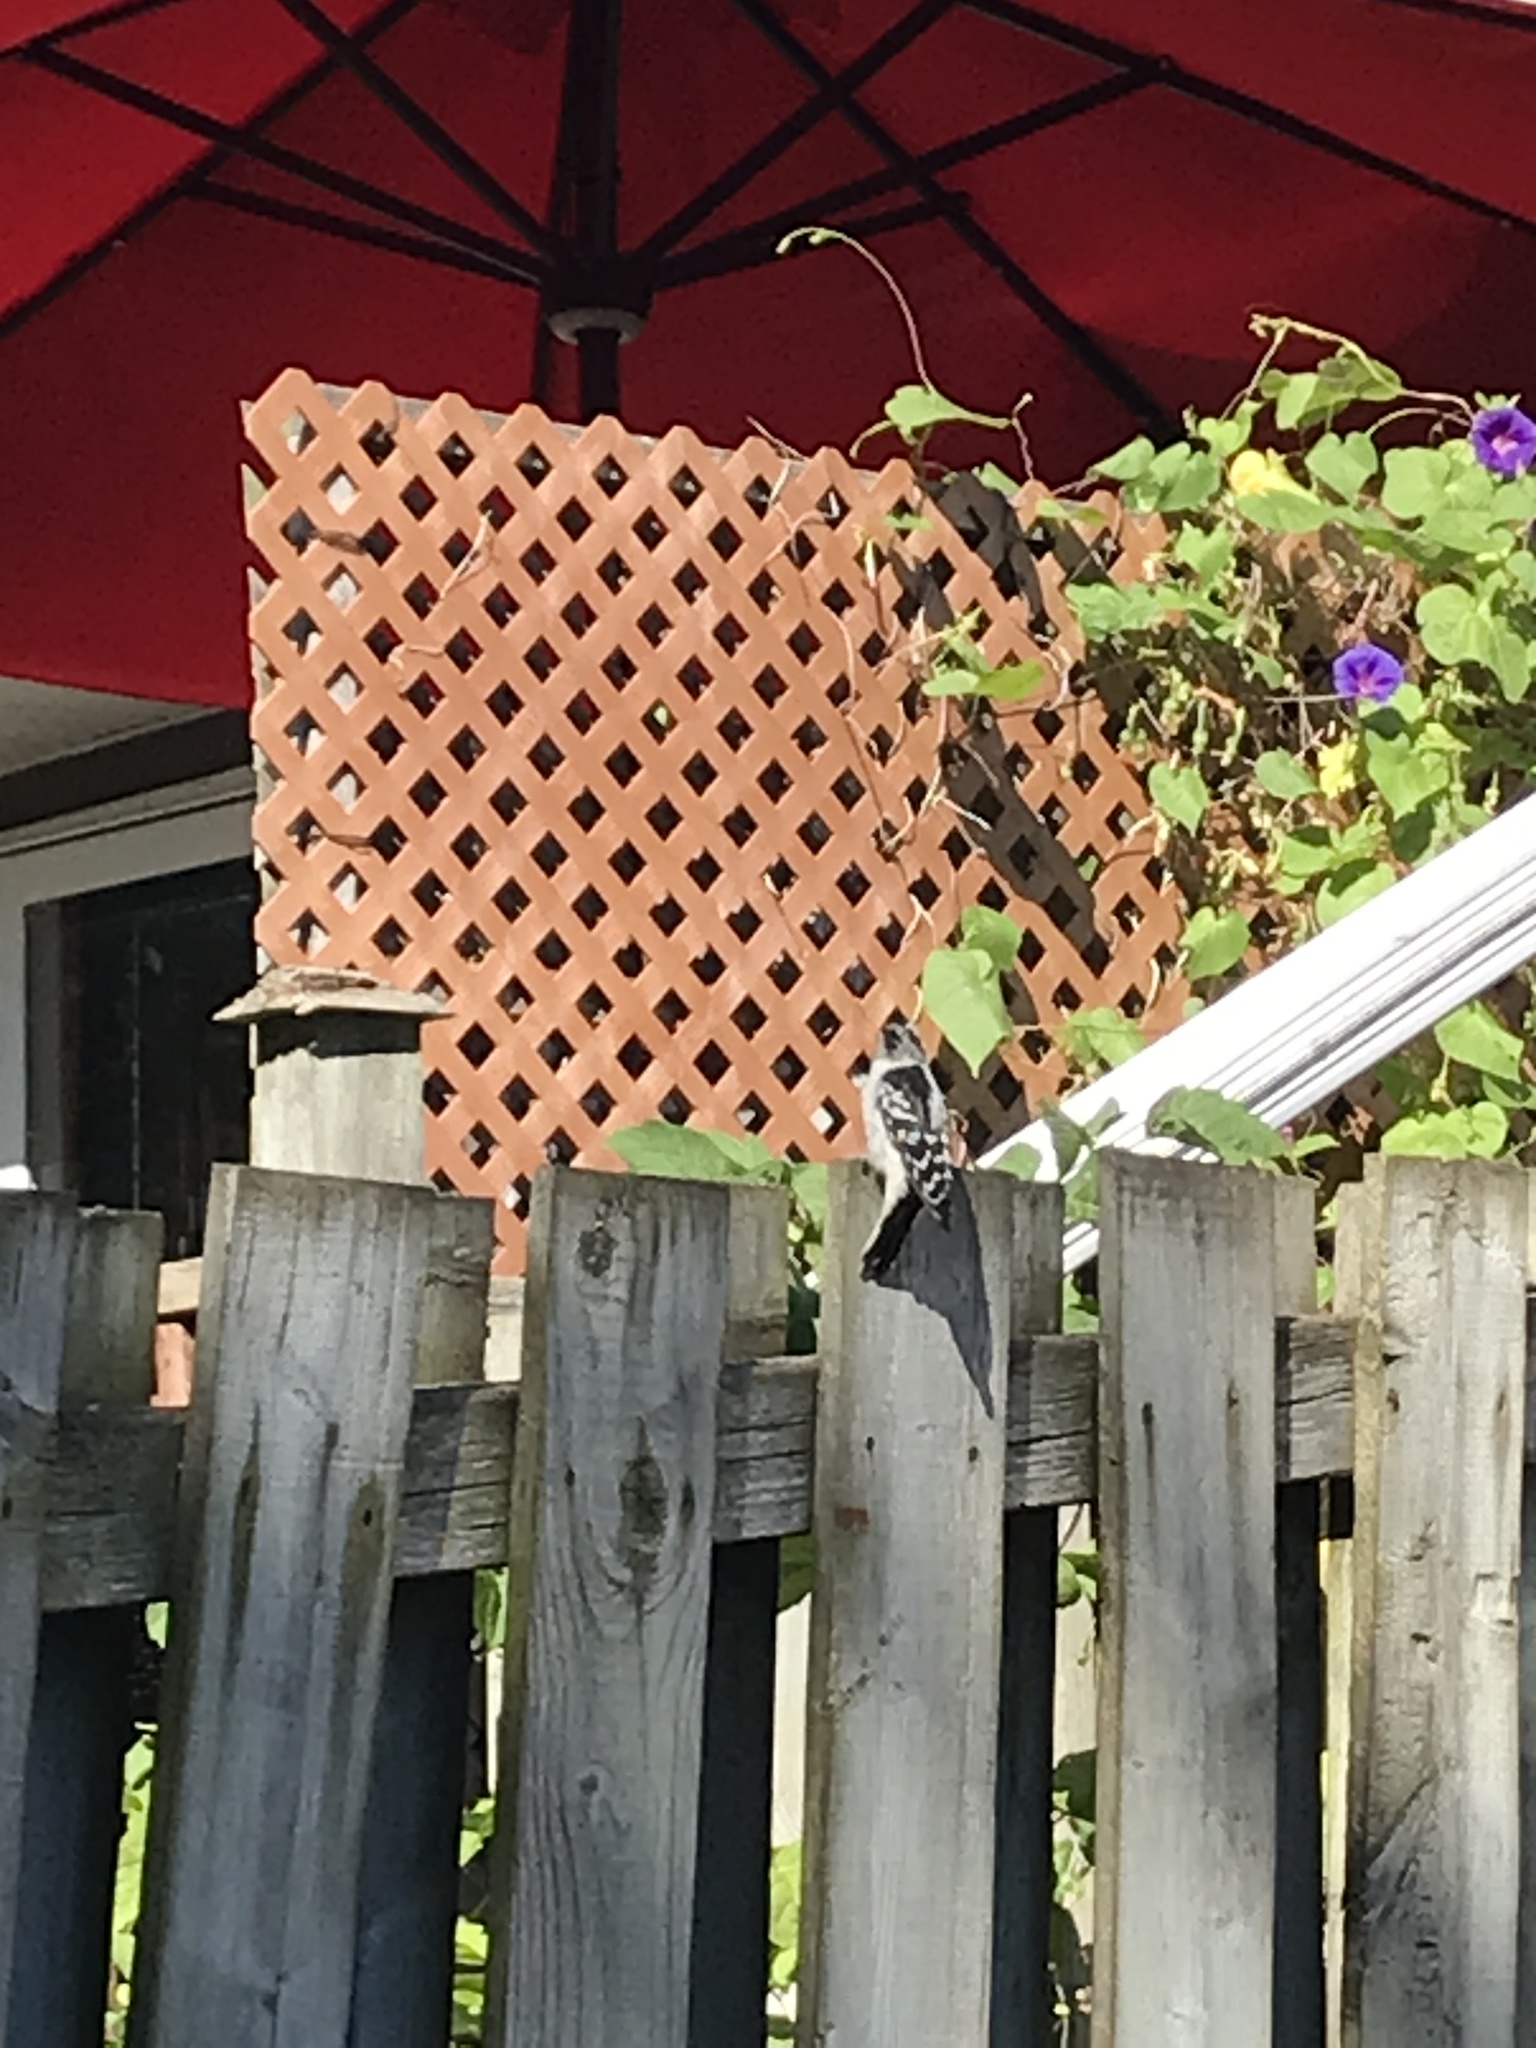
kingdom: Animalia
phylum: Chordata
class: Aves
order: Piciformes
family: Picidae
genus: Dryobates
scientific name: Dryobates pubescens
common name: Downy woodpecker
